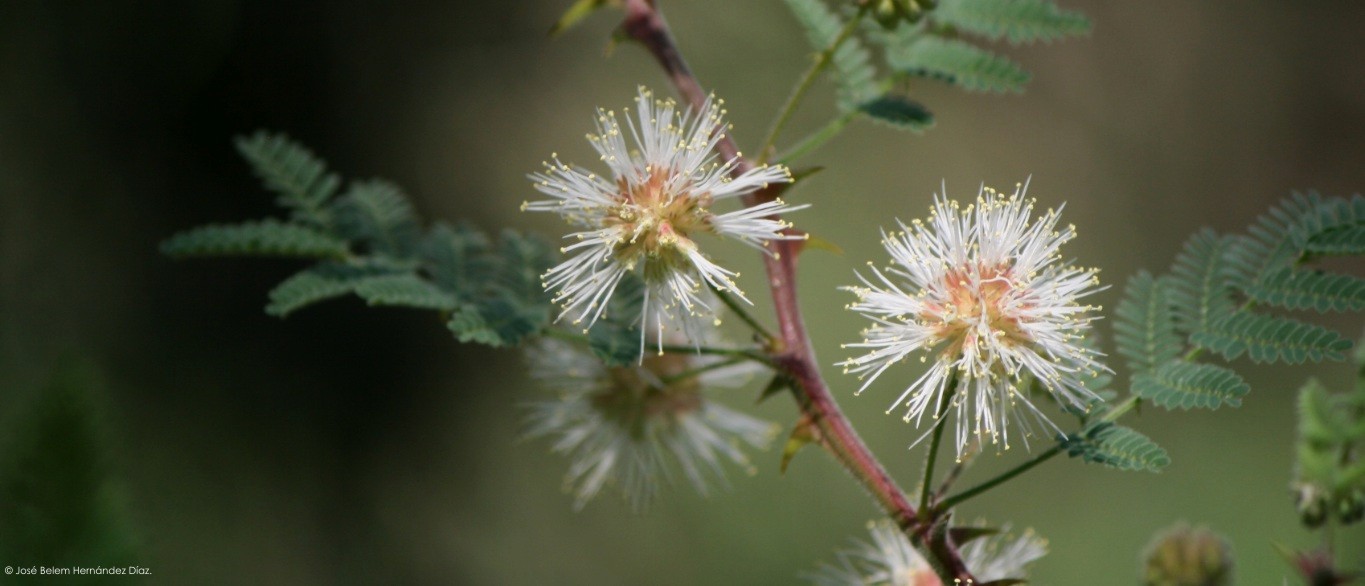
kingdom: Plantae
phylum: Tracheophyta
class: Magnoliopsida
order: Fabales
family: Fabaceae
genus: Mimosa
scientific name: Mimosa aculeaticarpa
